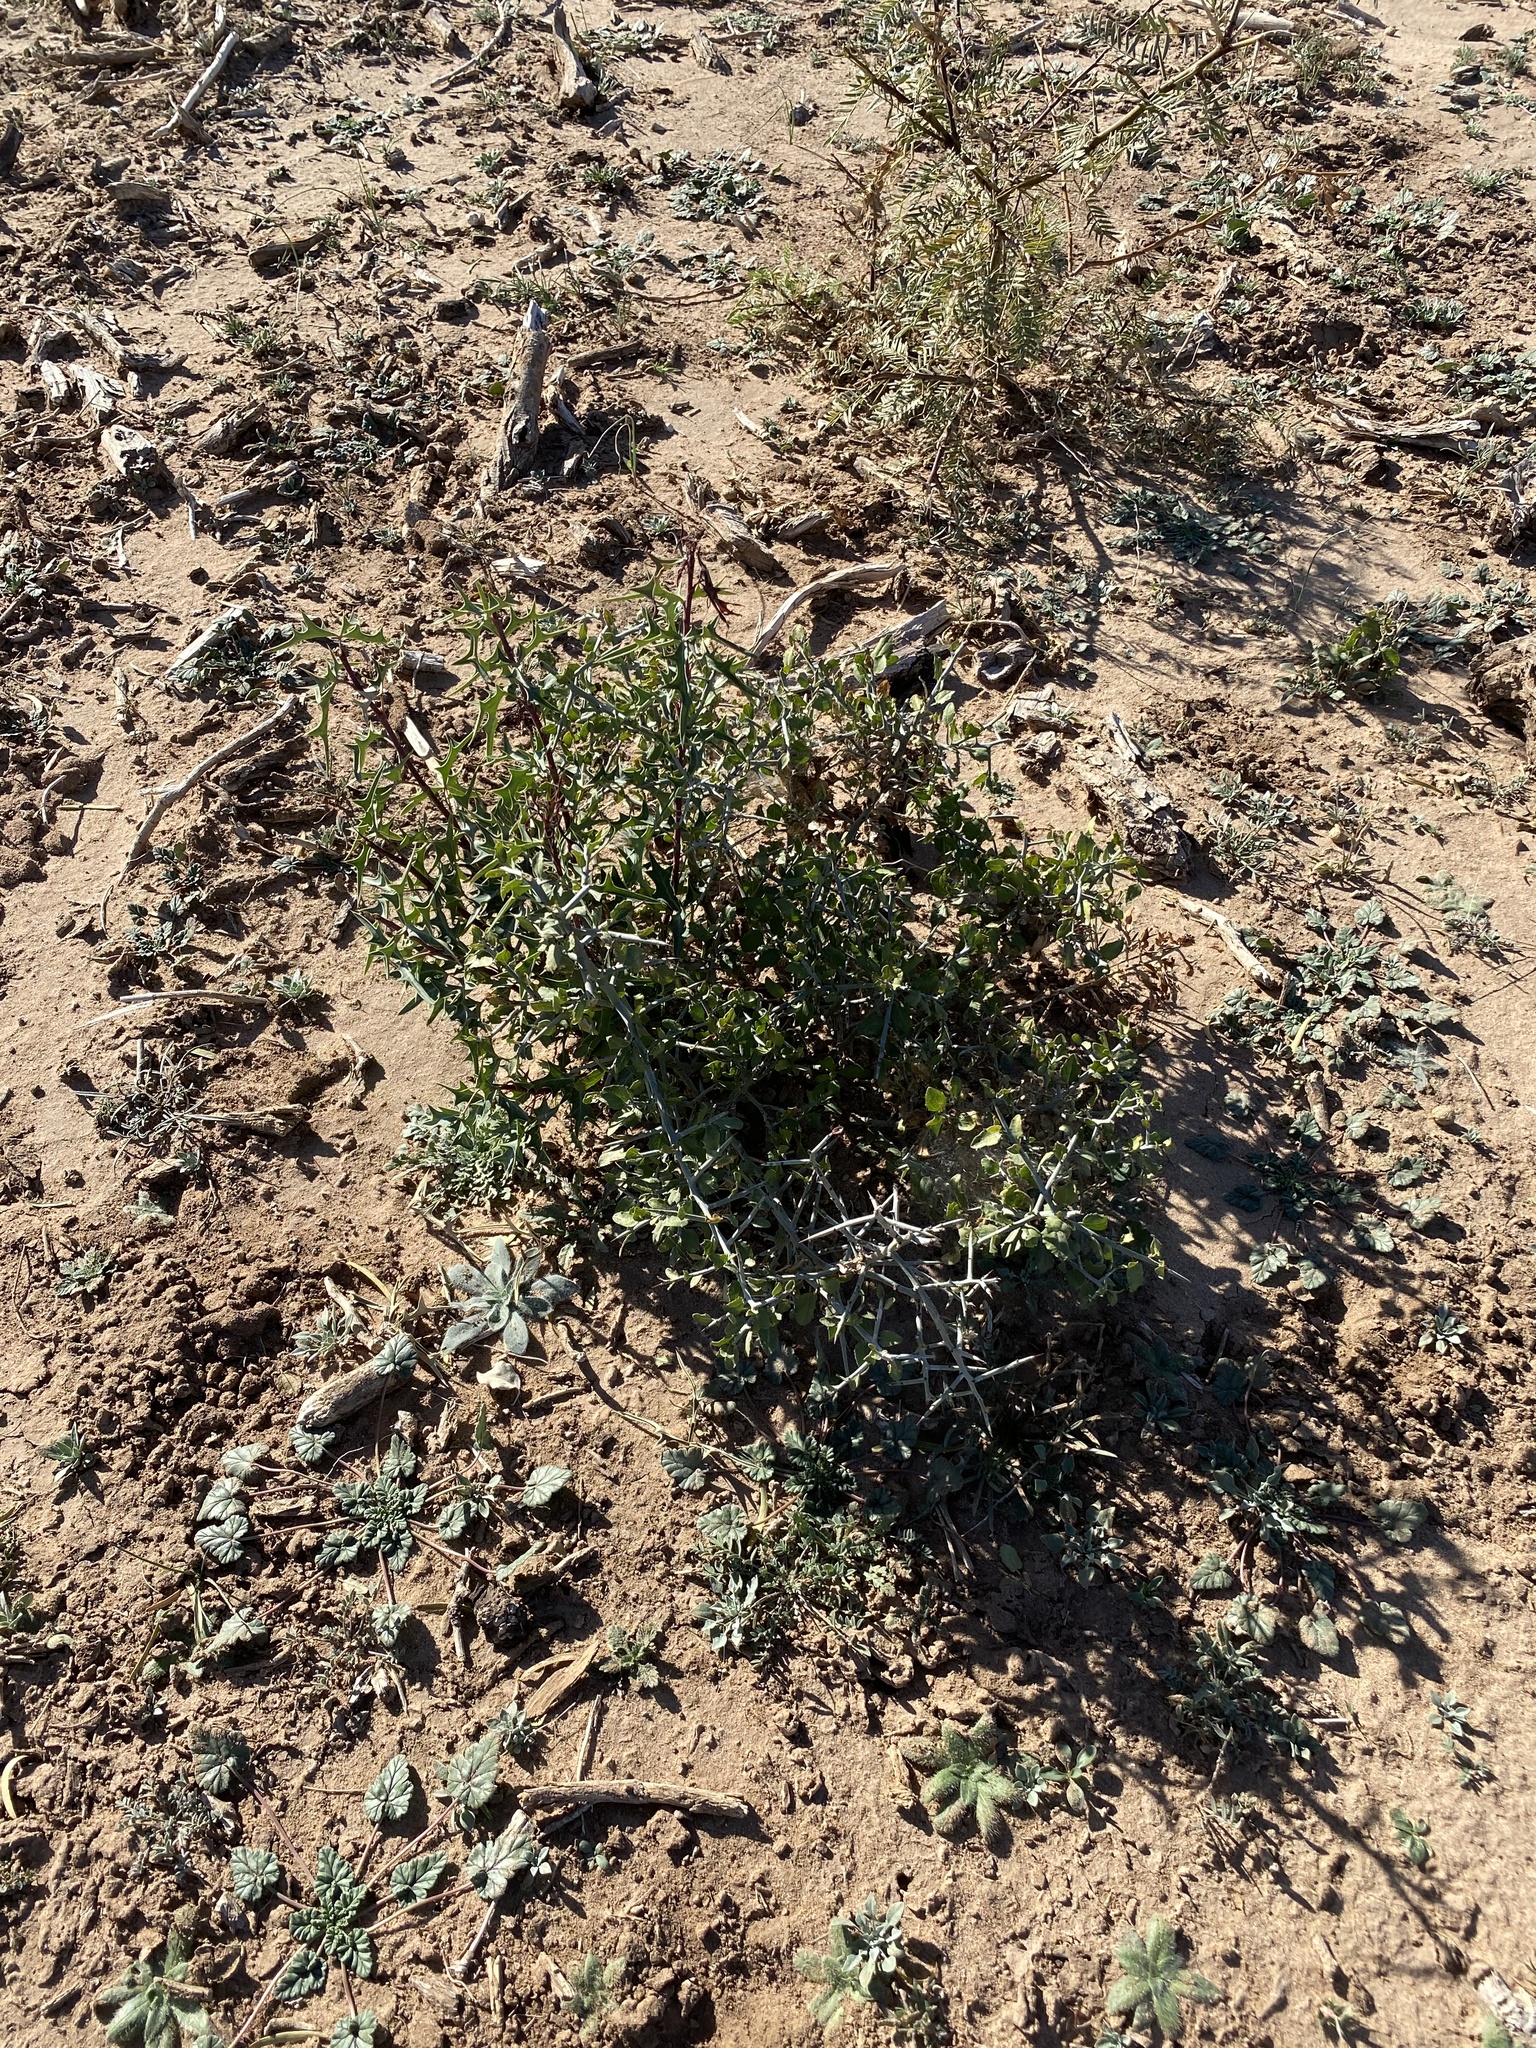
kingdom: Plantae
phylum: Tracheophyta
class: Magnoliopsida
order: Ranunculales
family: Berberidaceae
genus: Alloberberis
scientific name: Alloberberis trifoliolata
